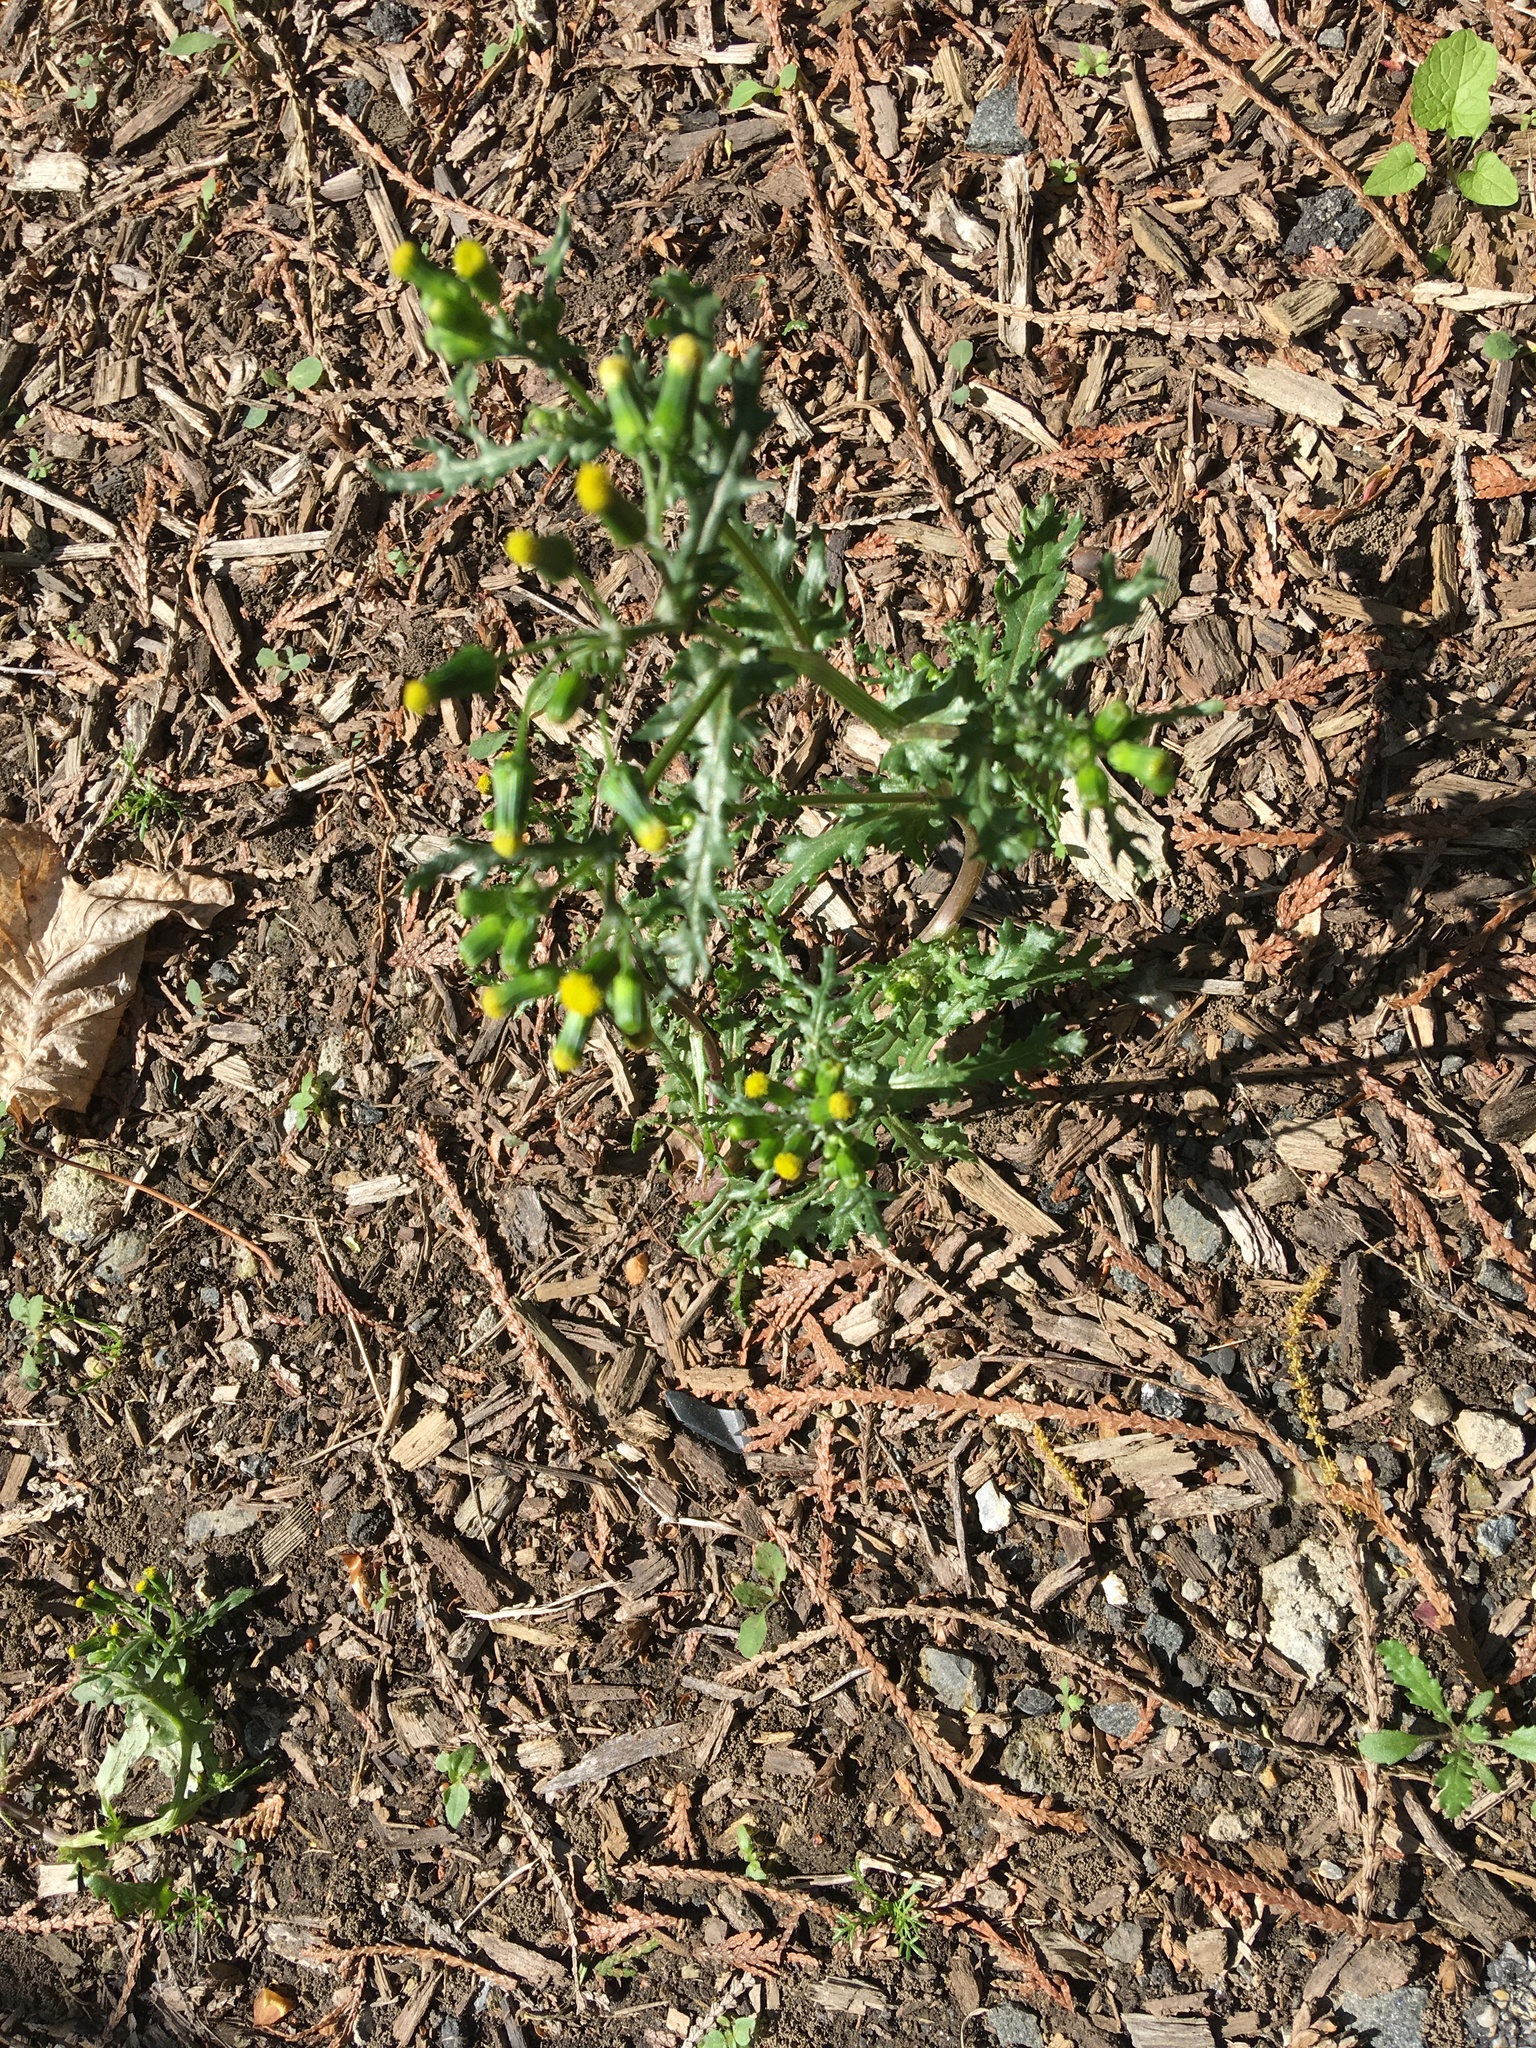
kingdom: Plantae
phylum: Tracheophyta
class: Magnoliopsida
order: Asterales
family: Asteraceae
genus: Senecio
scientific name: Senecio vulgaris
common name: Old-man-in-the-spring
